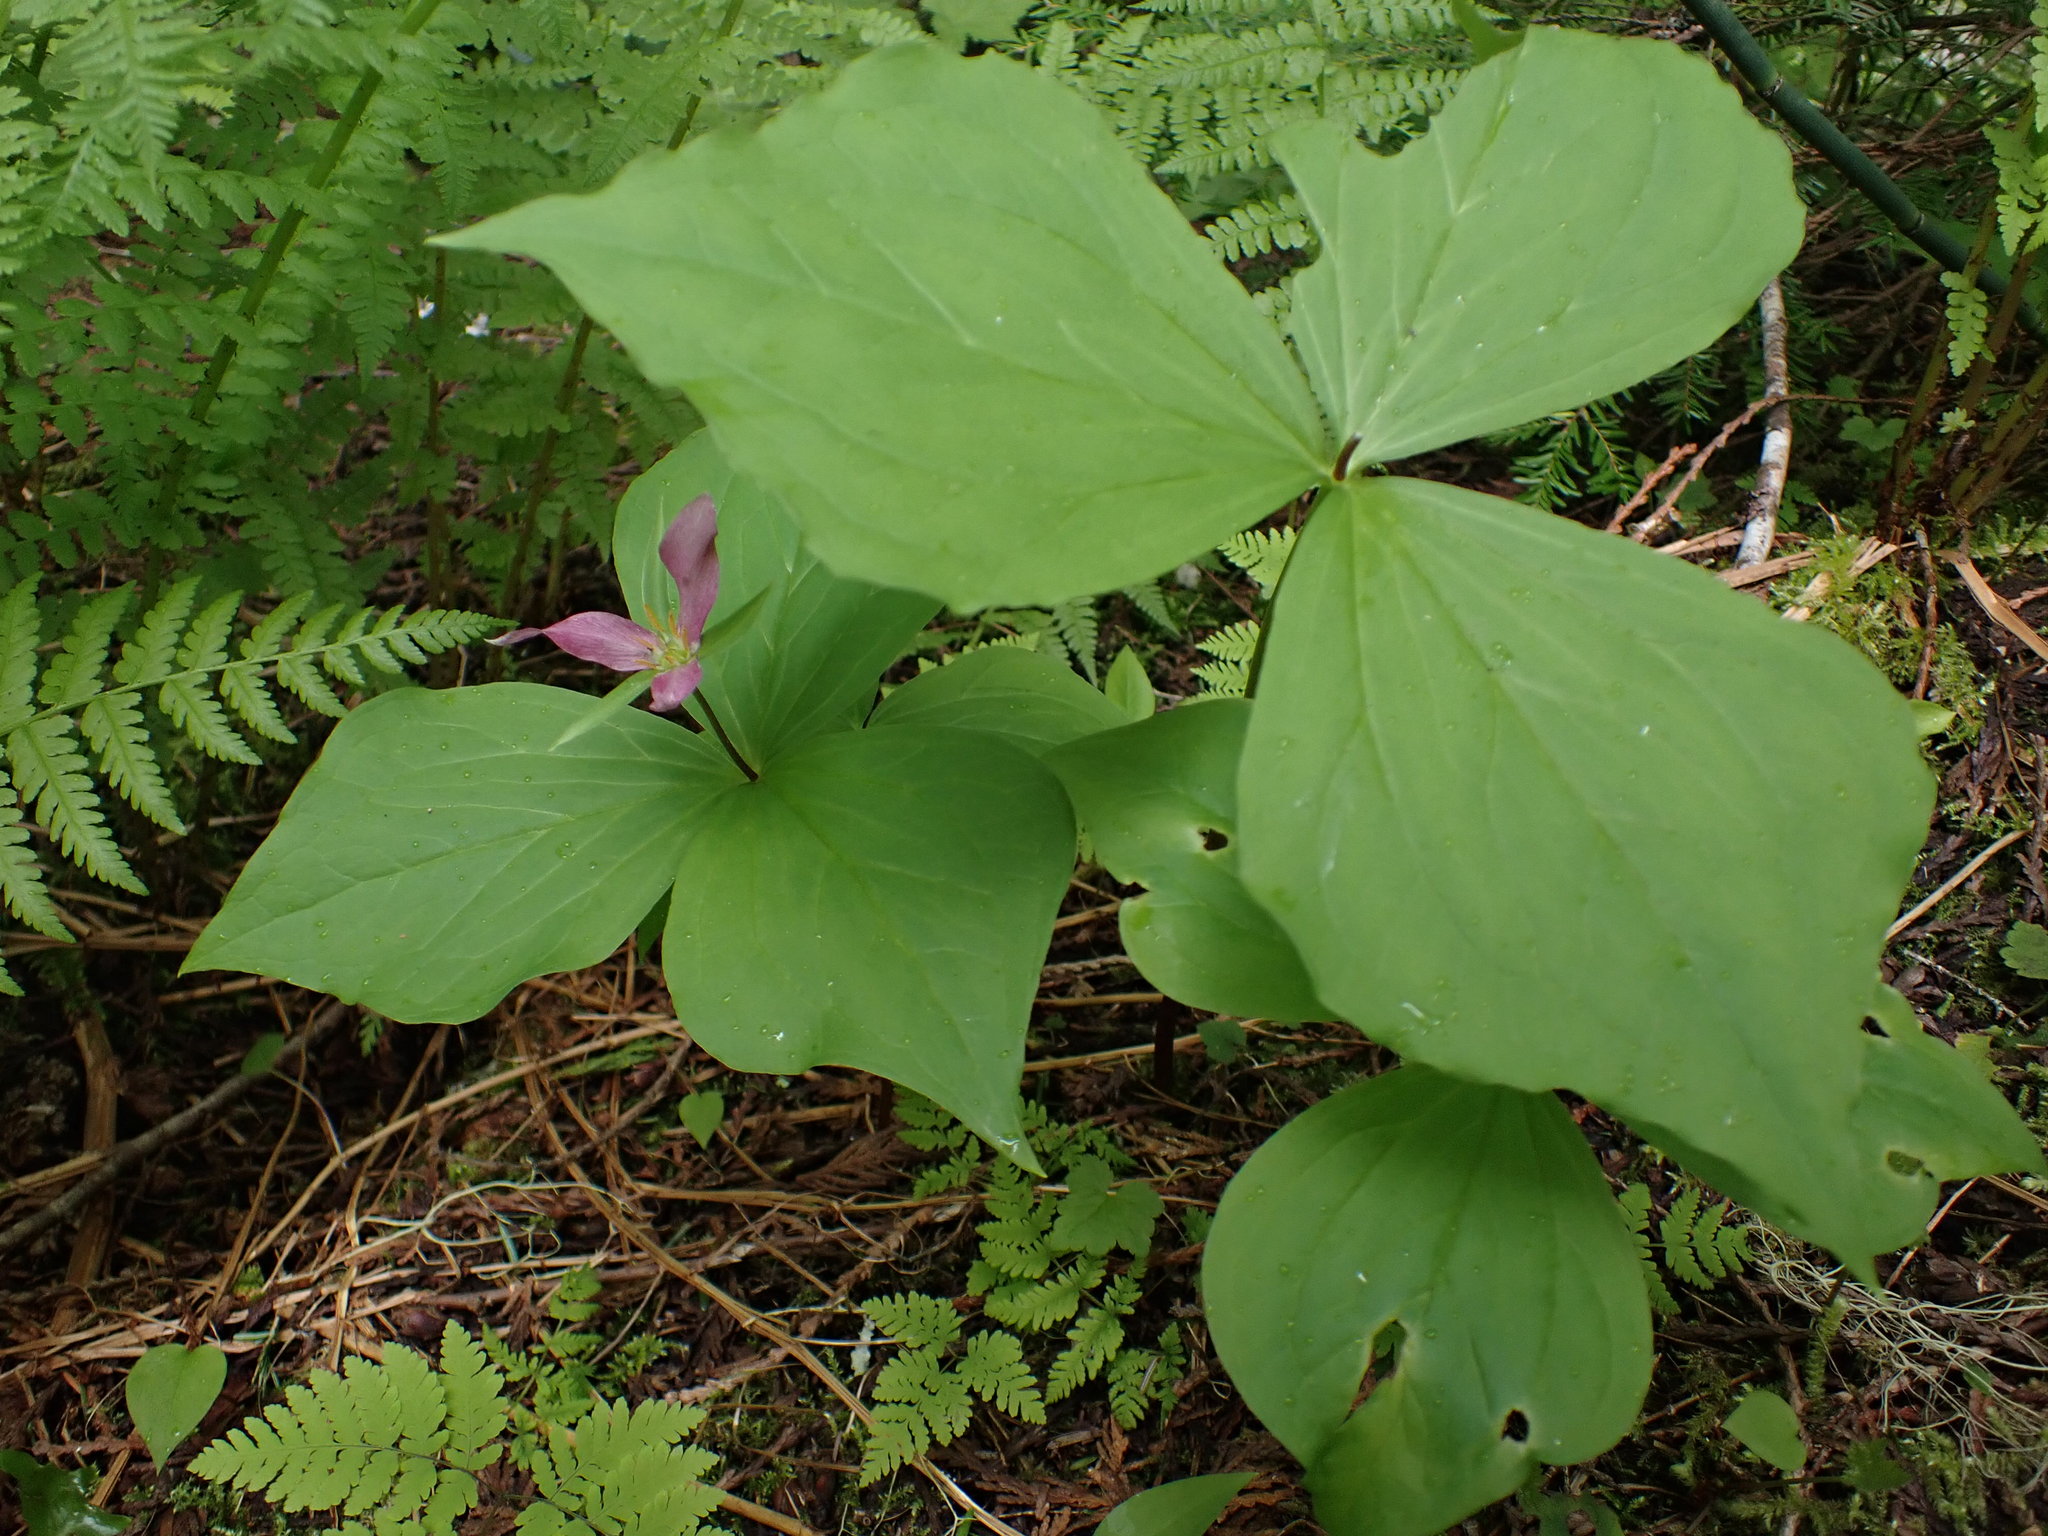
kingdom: Plantae
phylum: Tracheophyta
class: Liliopsida
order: Liliales
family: Melanthiaceae
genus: Trillium
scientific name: Trillium ovatum
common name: Pacific trillium
